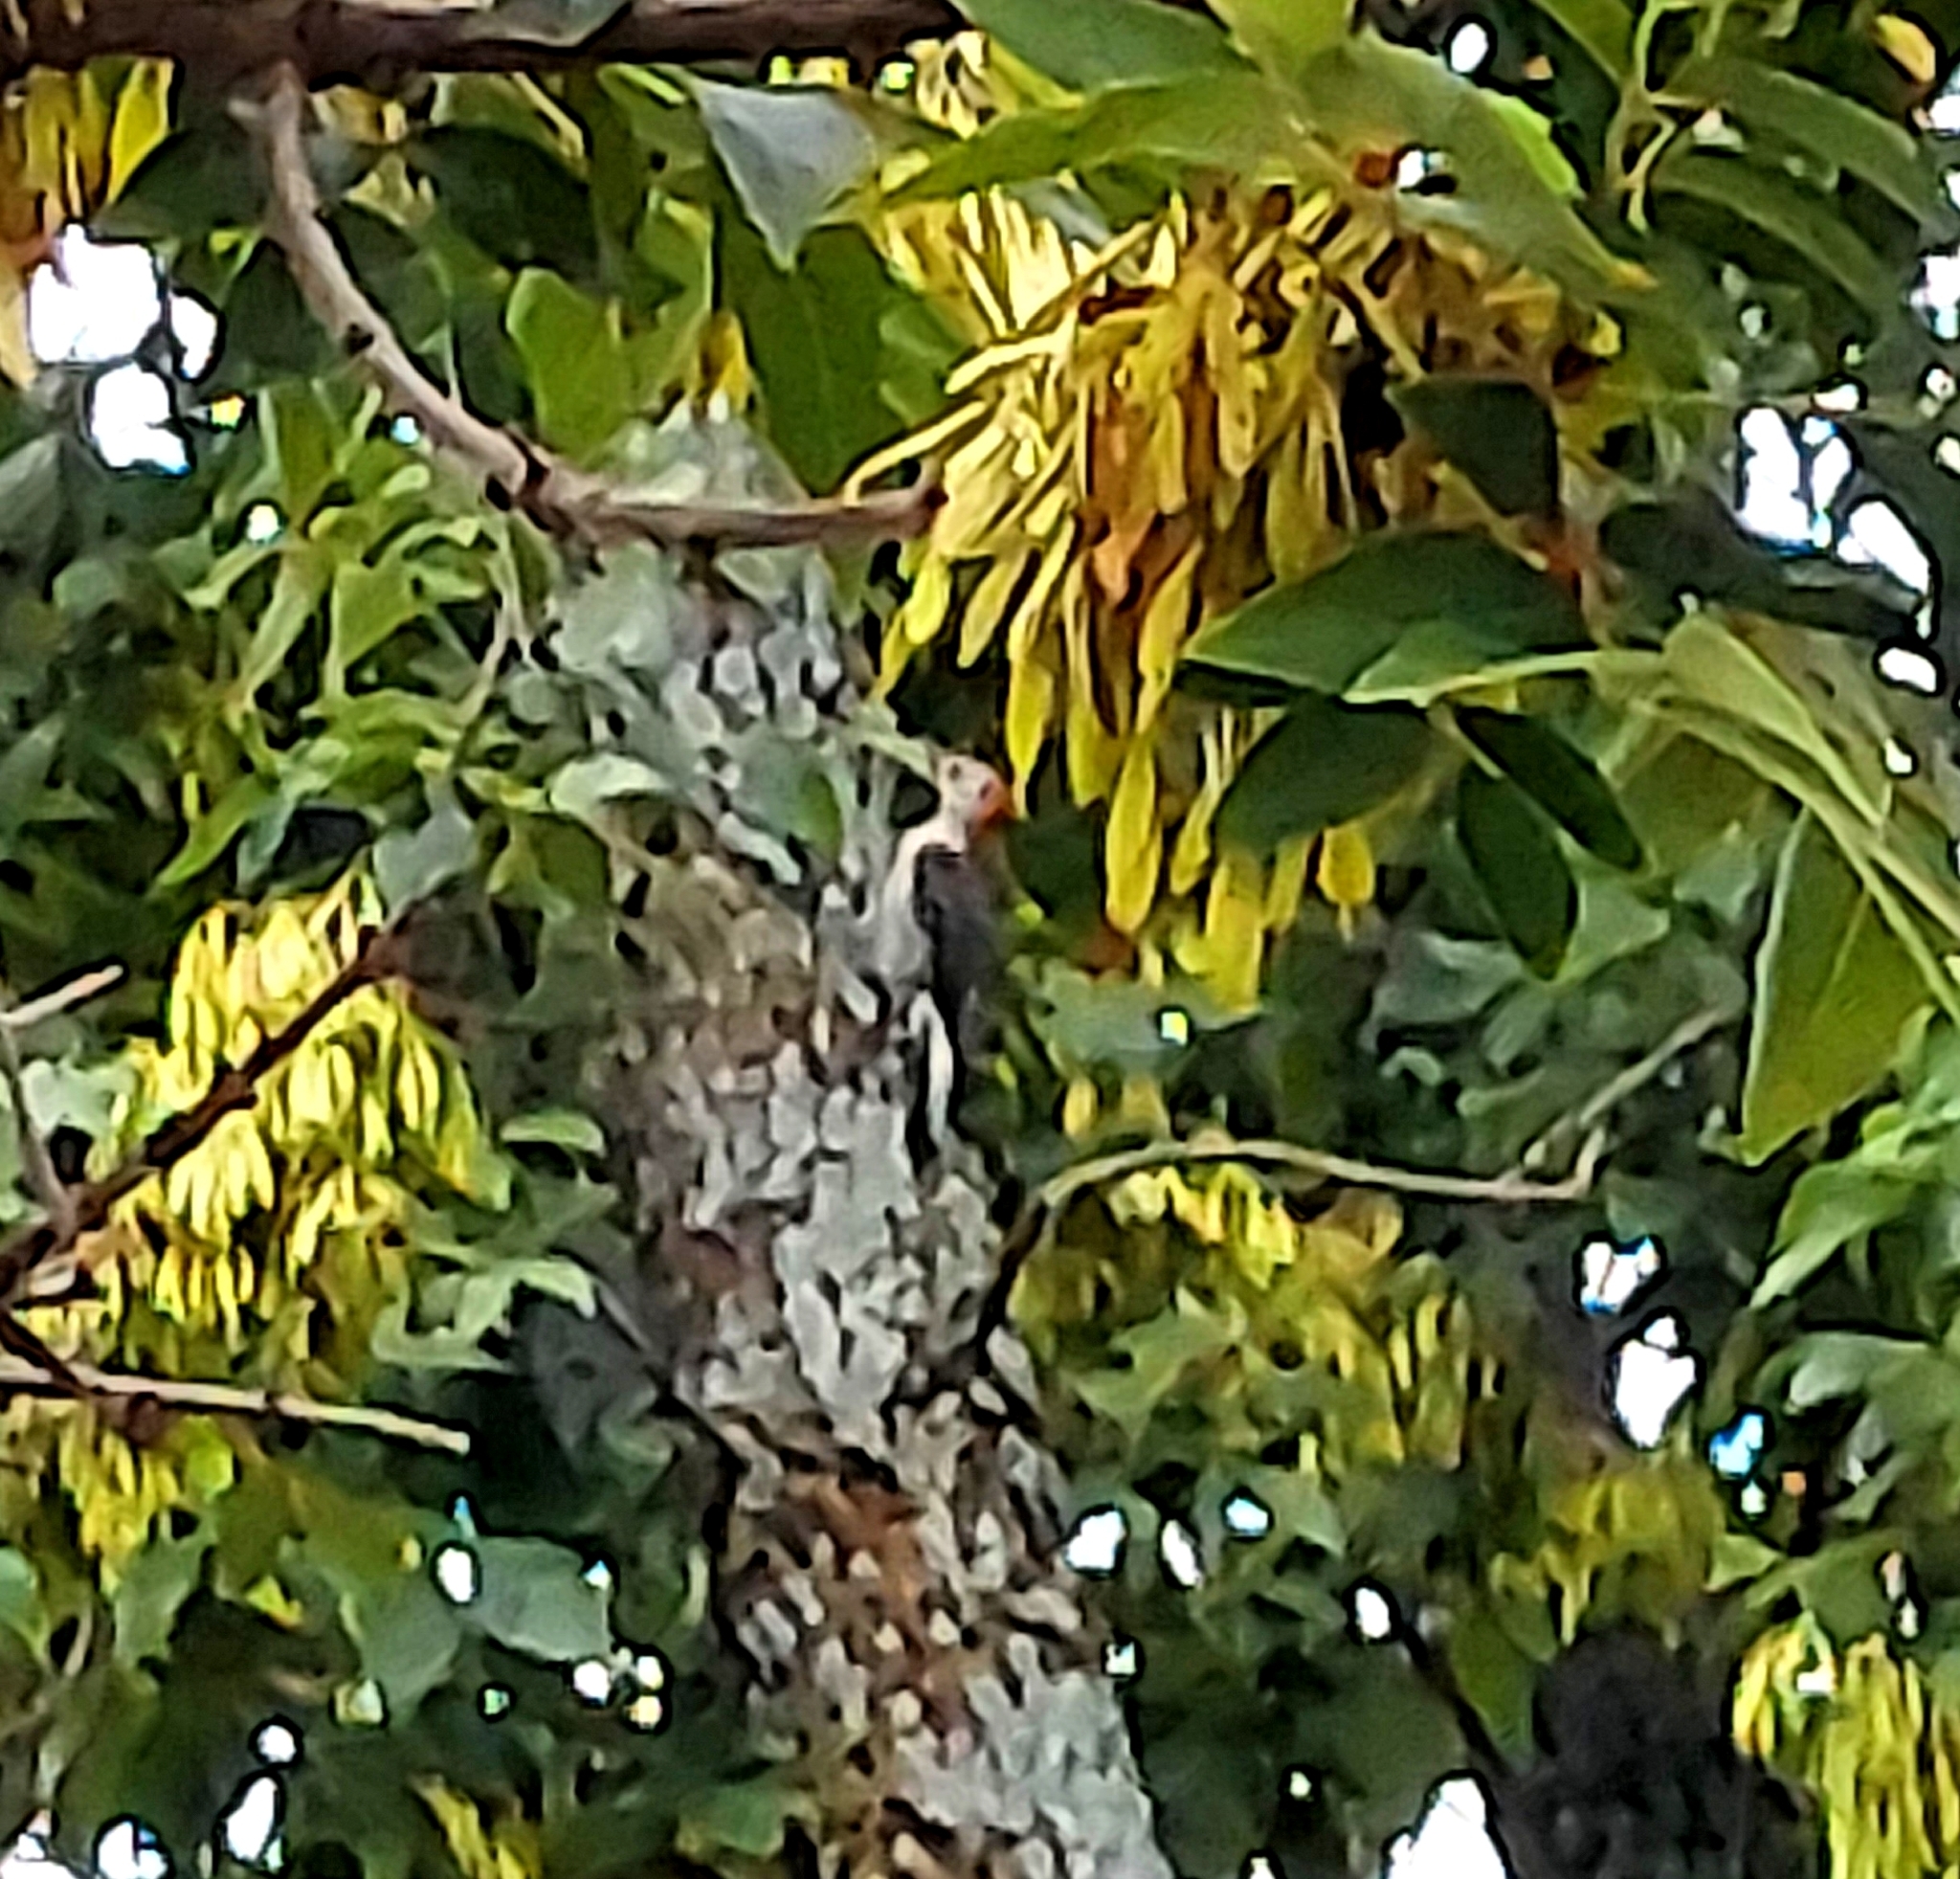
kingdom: Animalia
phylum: Chordata
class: Aves
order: Piciformes
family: Picidae
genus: Melanerpes
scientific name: Melanerpes carolinus
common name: Red-bellied woodpecker
